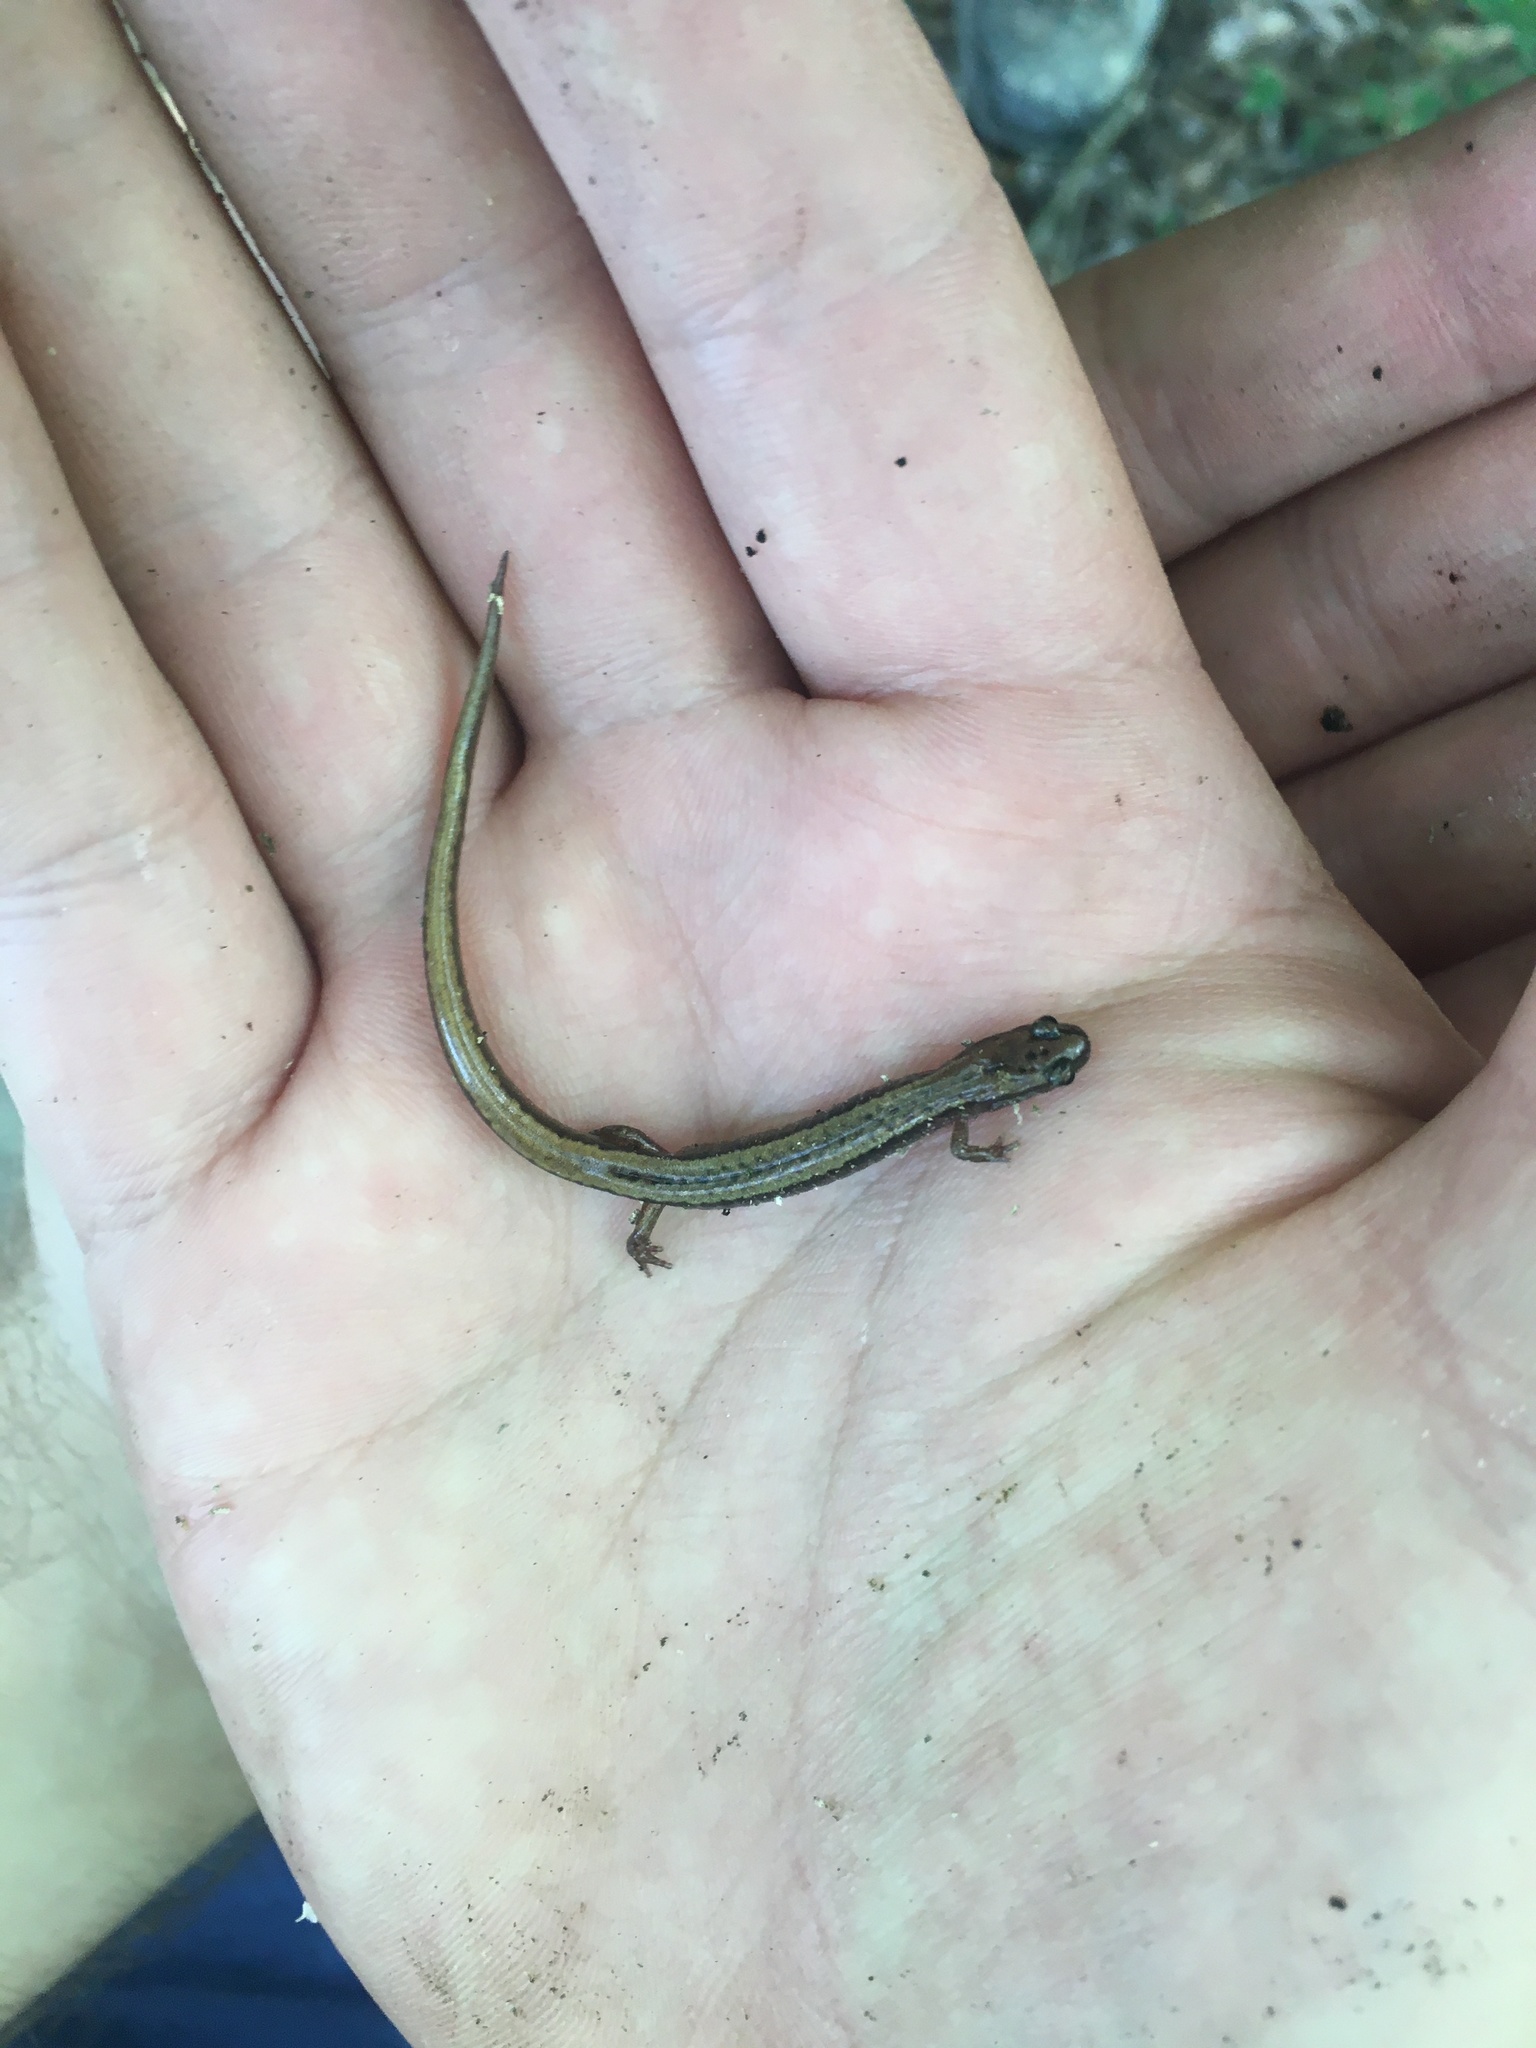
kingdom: Animalia
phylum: Chordata
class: Amphibia
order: Caudata
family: Plethodontidae
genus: Eurycea
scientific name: Eurycea paludicola
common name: Western dwarf salamander
